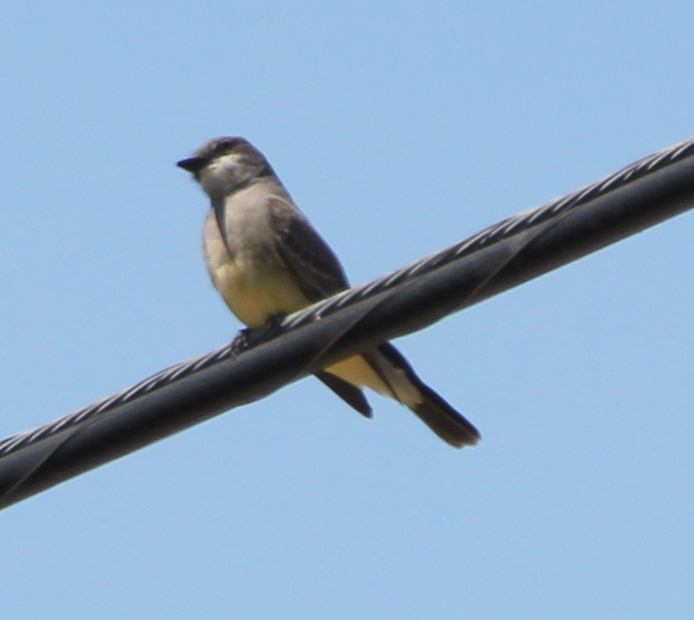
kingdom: Animalia
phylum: Chordata
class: Aves
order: Passeriformes
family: Tyrannidae
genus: Tyrannus
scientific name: Tyrannus vociferans
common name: Cassin's kingbird
